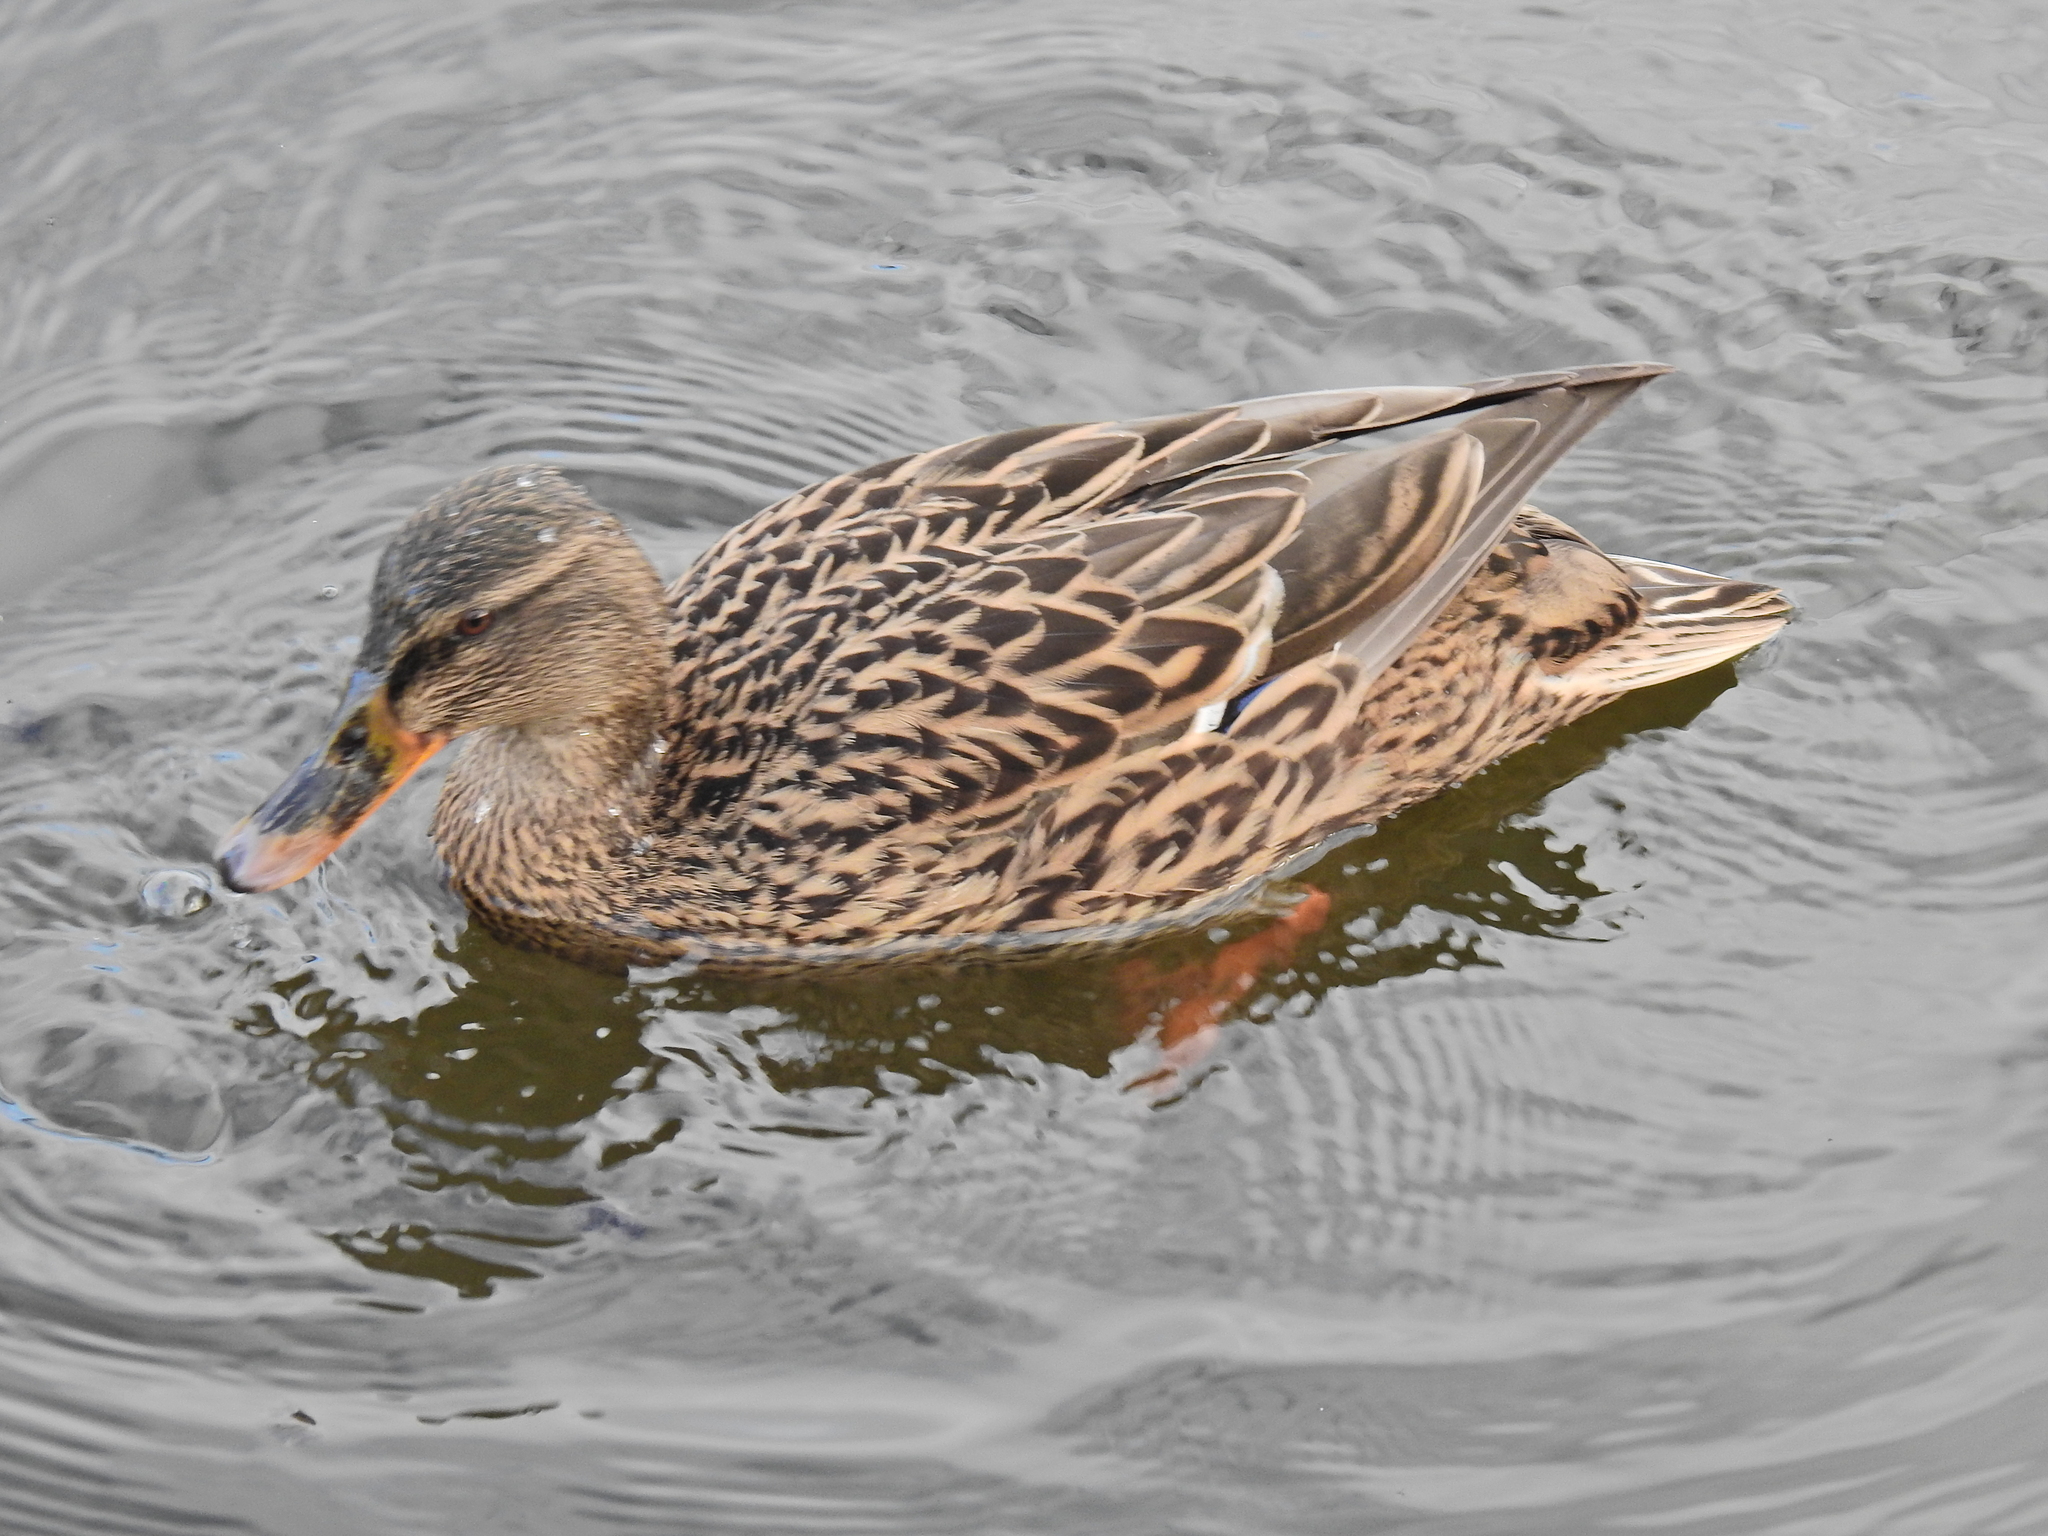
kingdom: Animalia
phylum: Chordata
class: Aves
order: Anseriformes
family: Anatidae
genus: Anas
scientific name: Anas platyrhynchos
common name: Mallard
